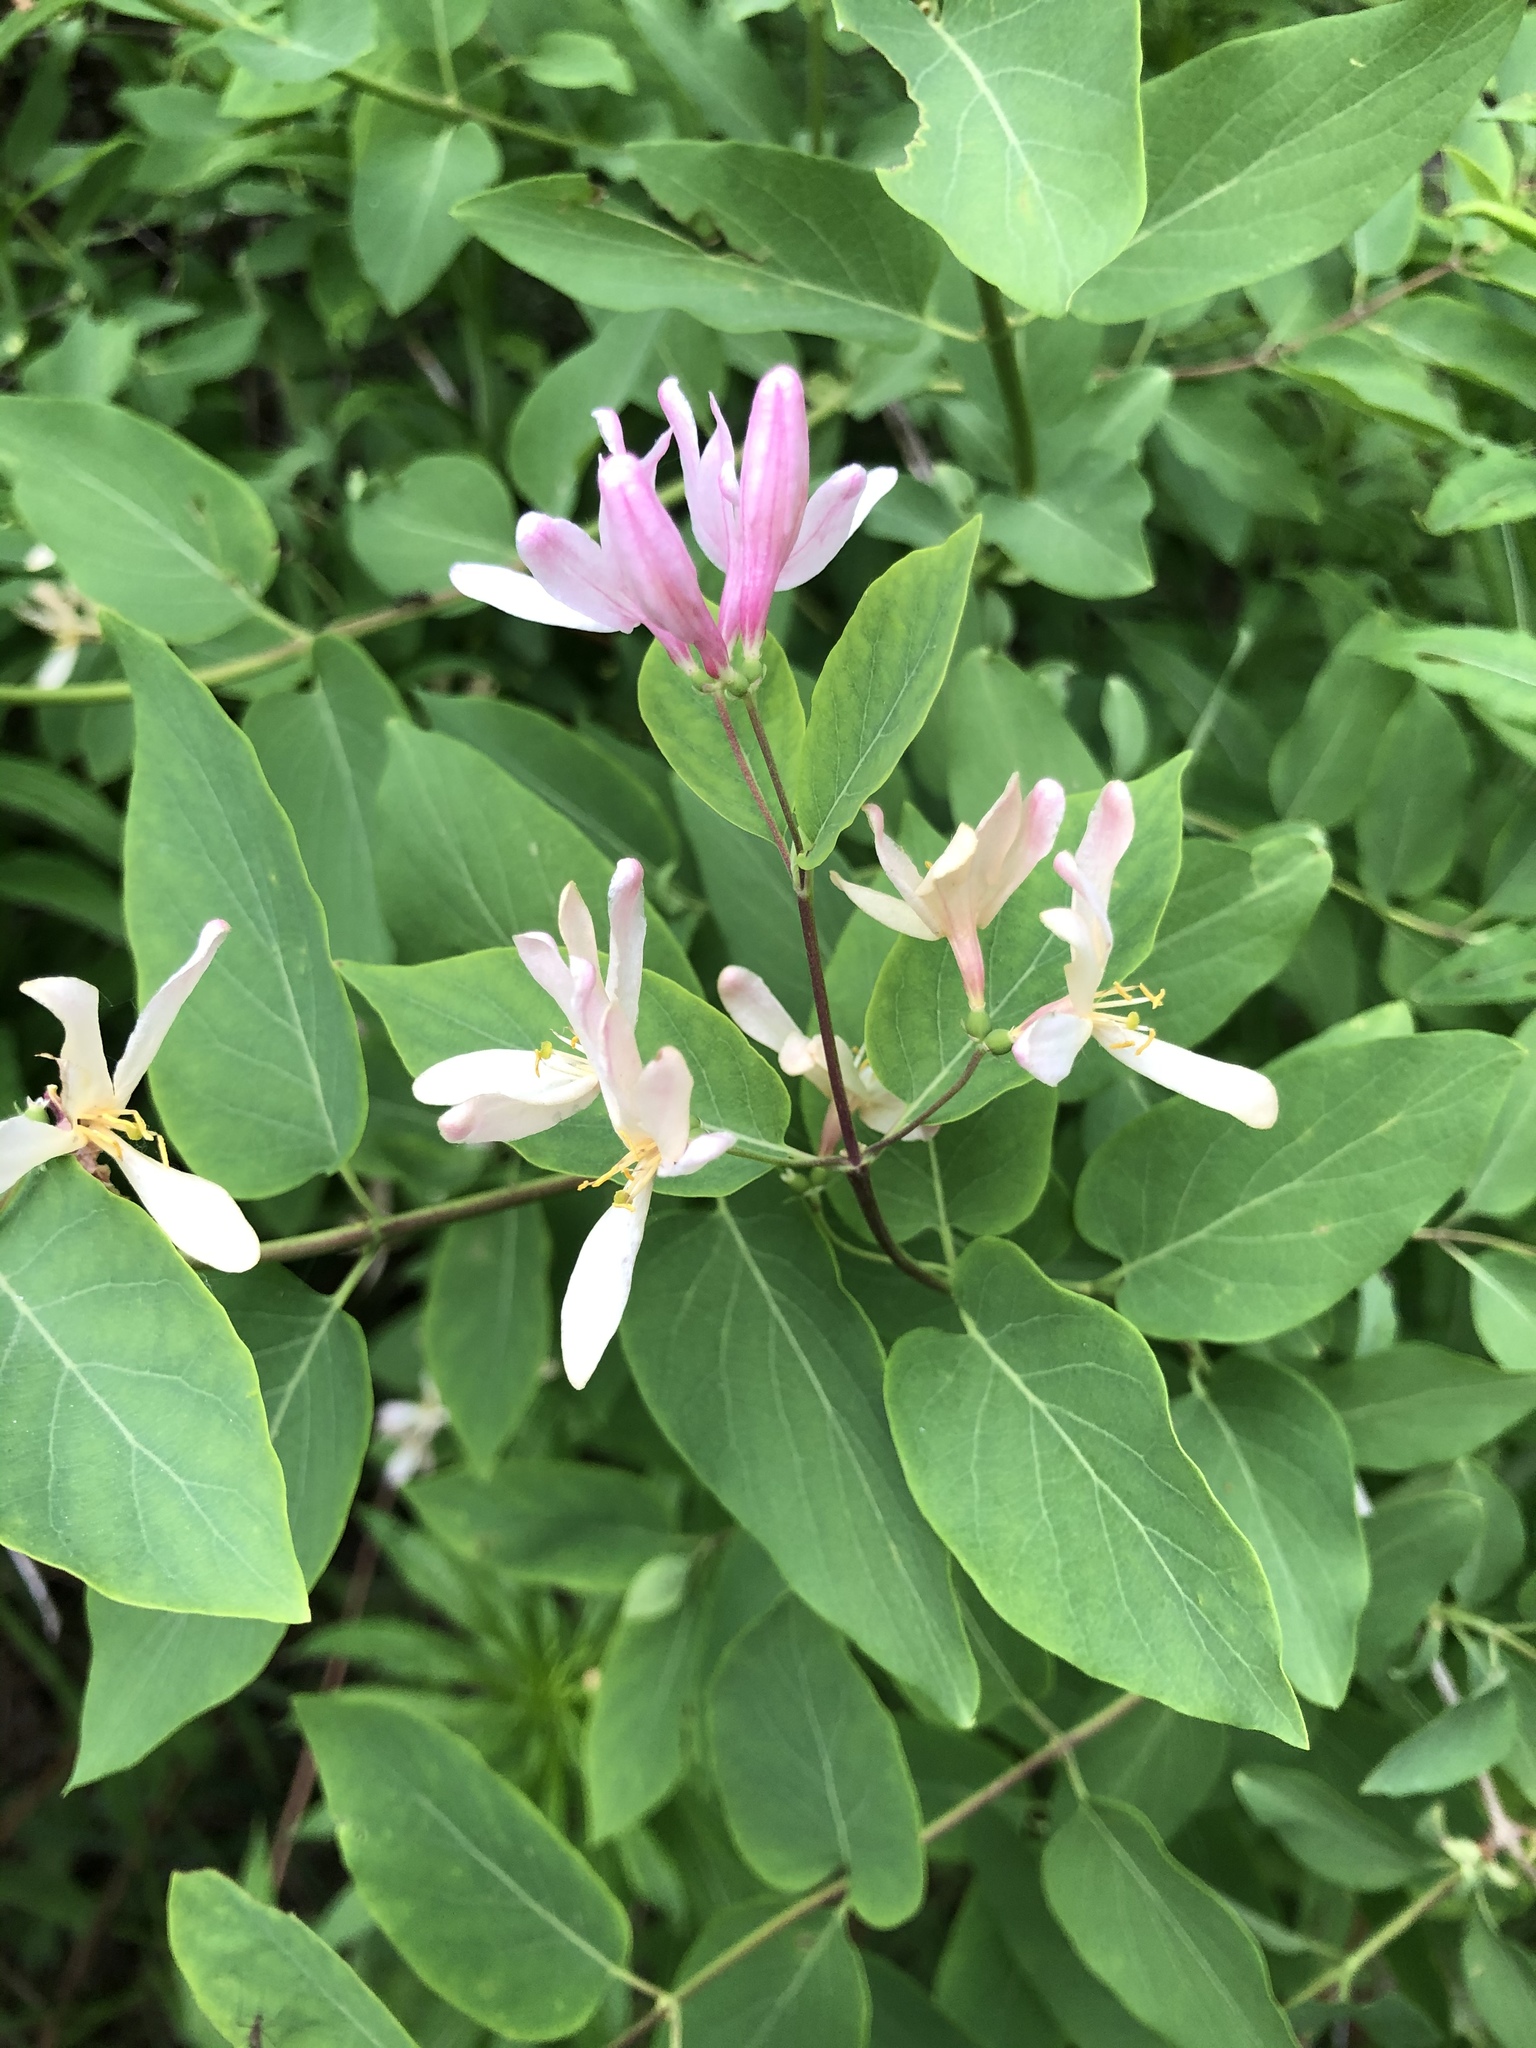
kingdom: Plantae
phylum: Tracheophyta
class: Magnoliopsida
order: Dipsacales
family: Caprifoliaceae
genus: Lonicera
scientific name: Lonicera tatarica
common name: Tatarian honeysuckle
